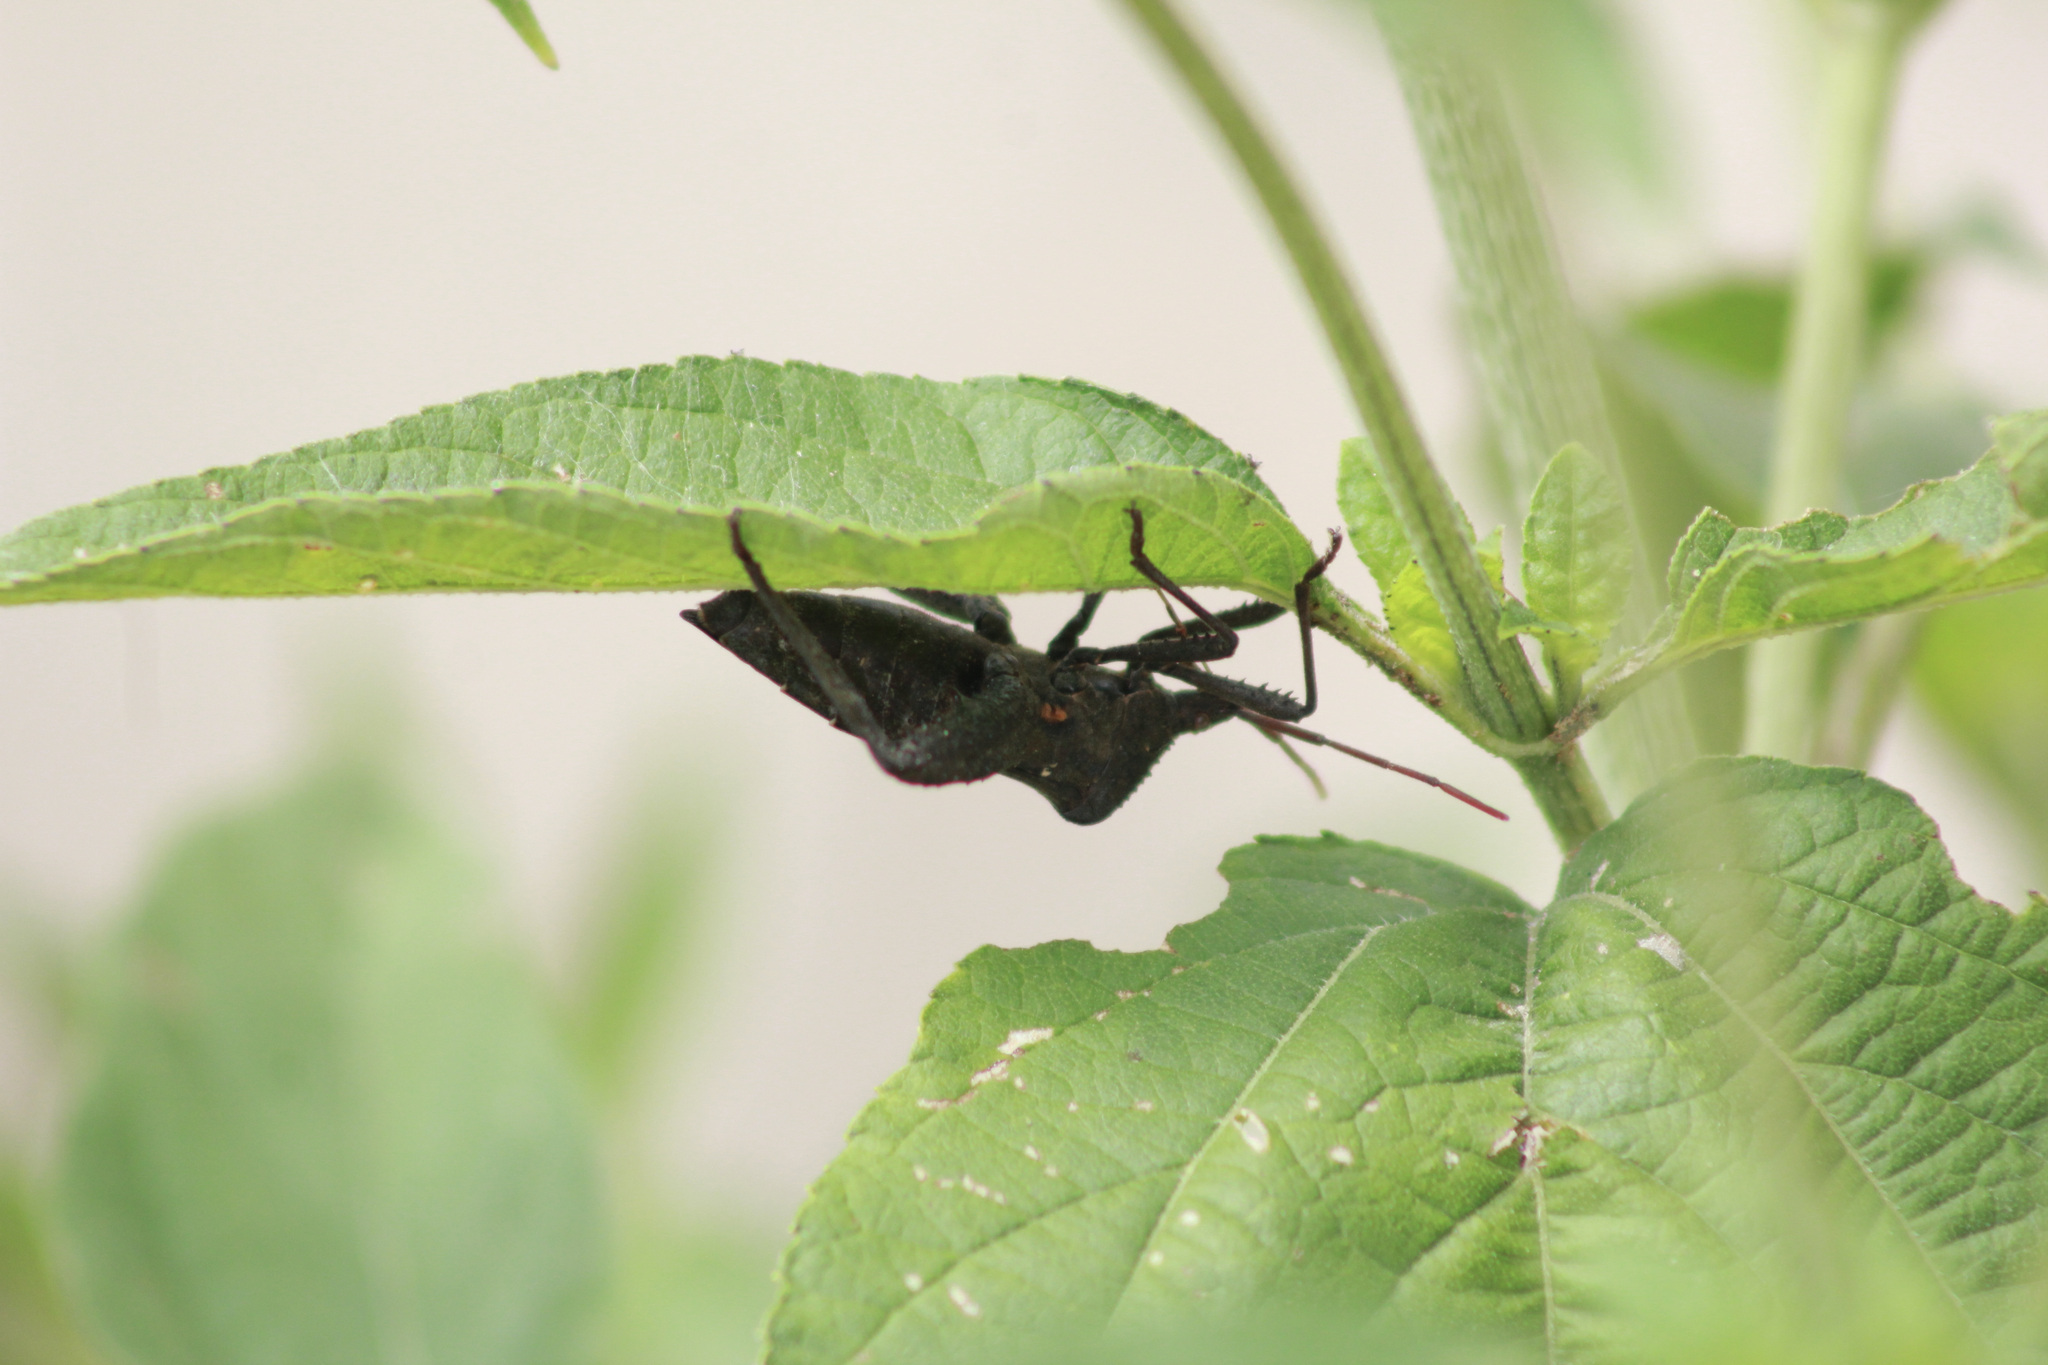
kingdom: Animalia
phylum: Arthropoda
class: Insecta
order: Hemiptera
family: Coreidae
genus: Acanthocephala
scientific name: Acanthocephala femorata
